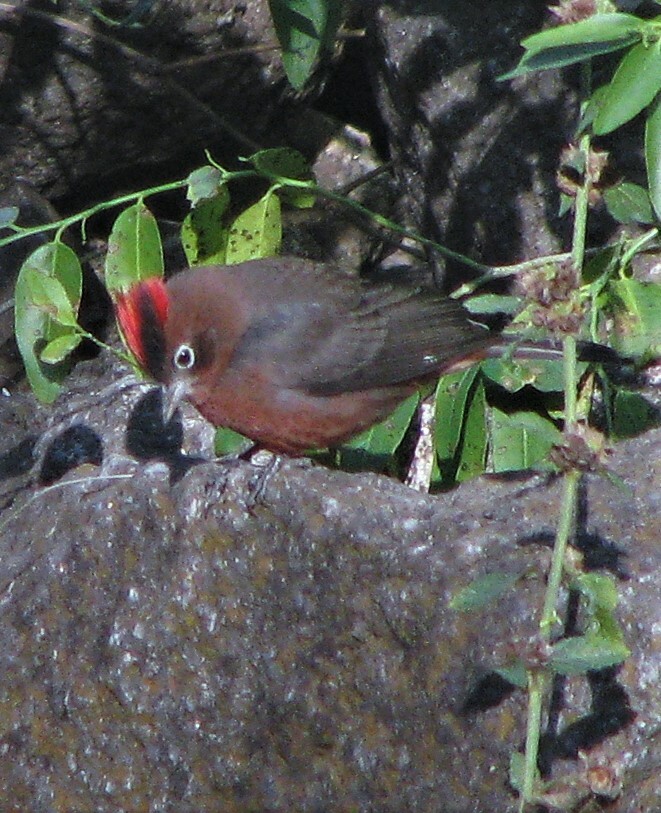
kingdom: Animalia
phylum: Chordata
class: Aves
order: Passeriformes
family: Thraupidae
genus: Coryphospingus
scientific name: Coryphospingus cucullatus
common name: Red pileated finch
